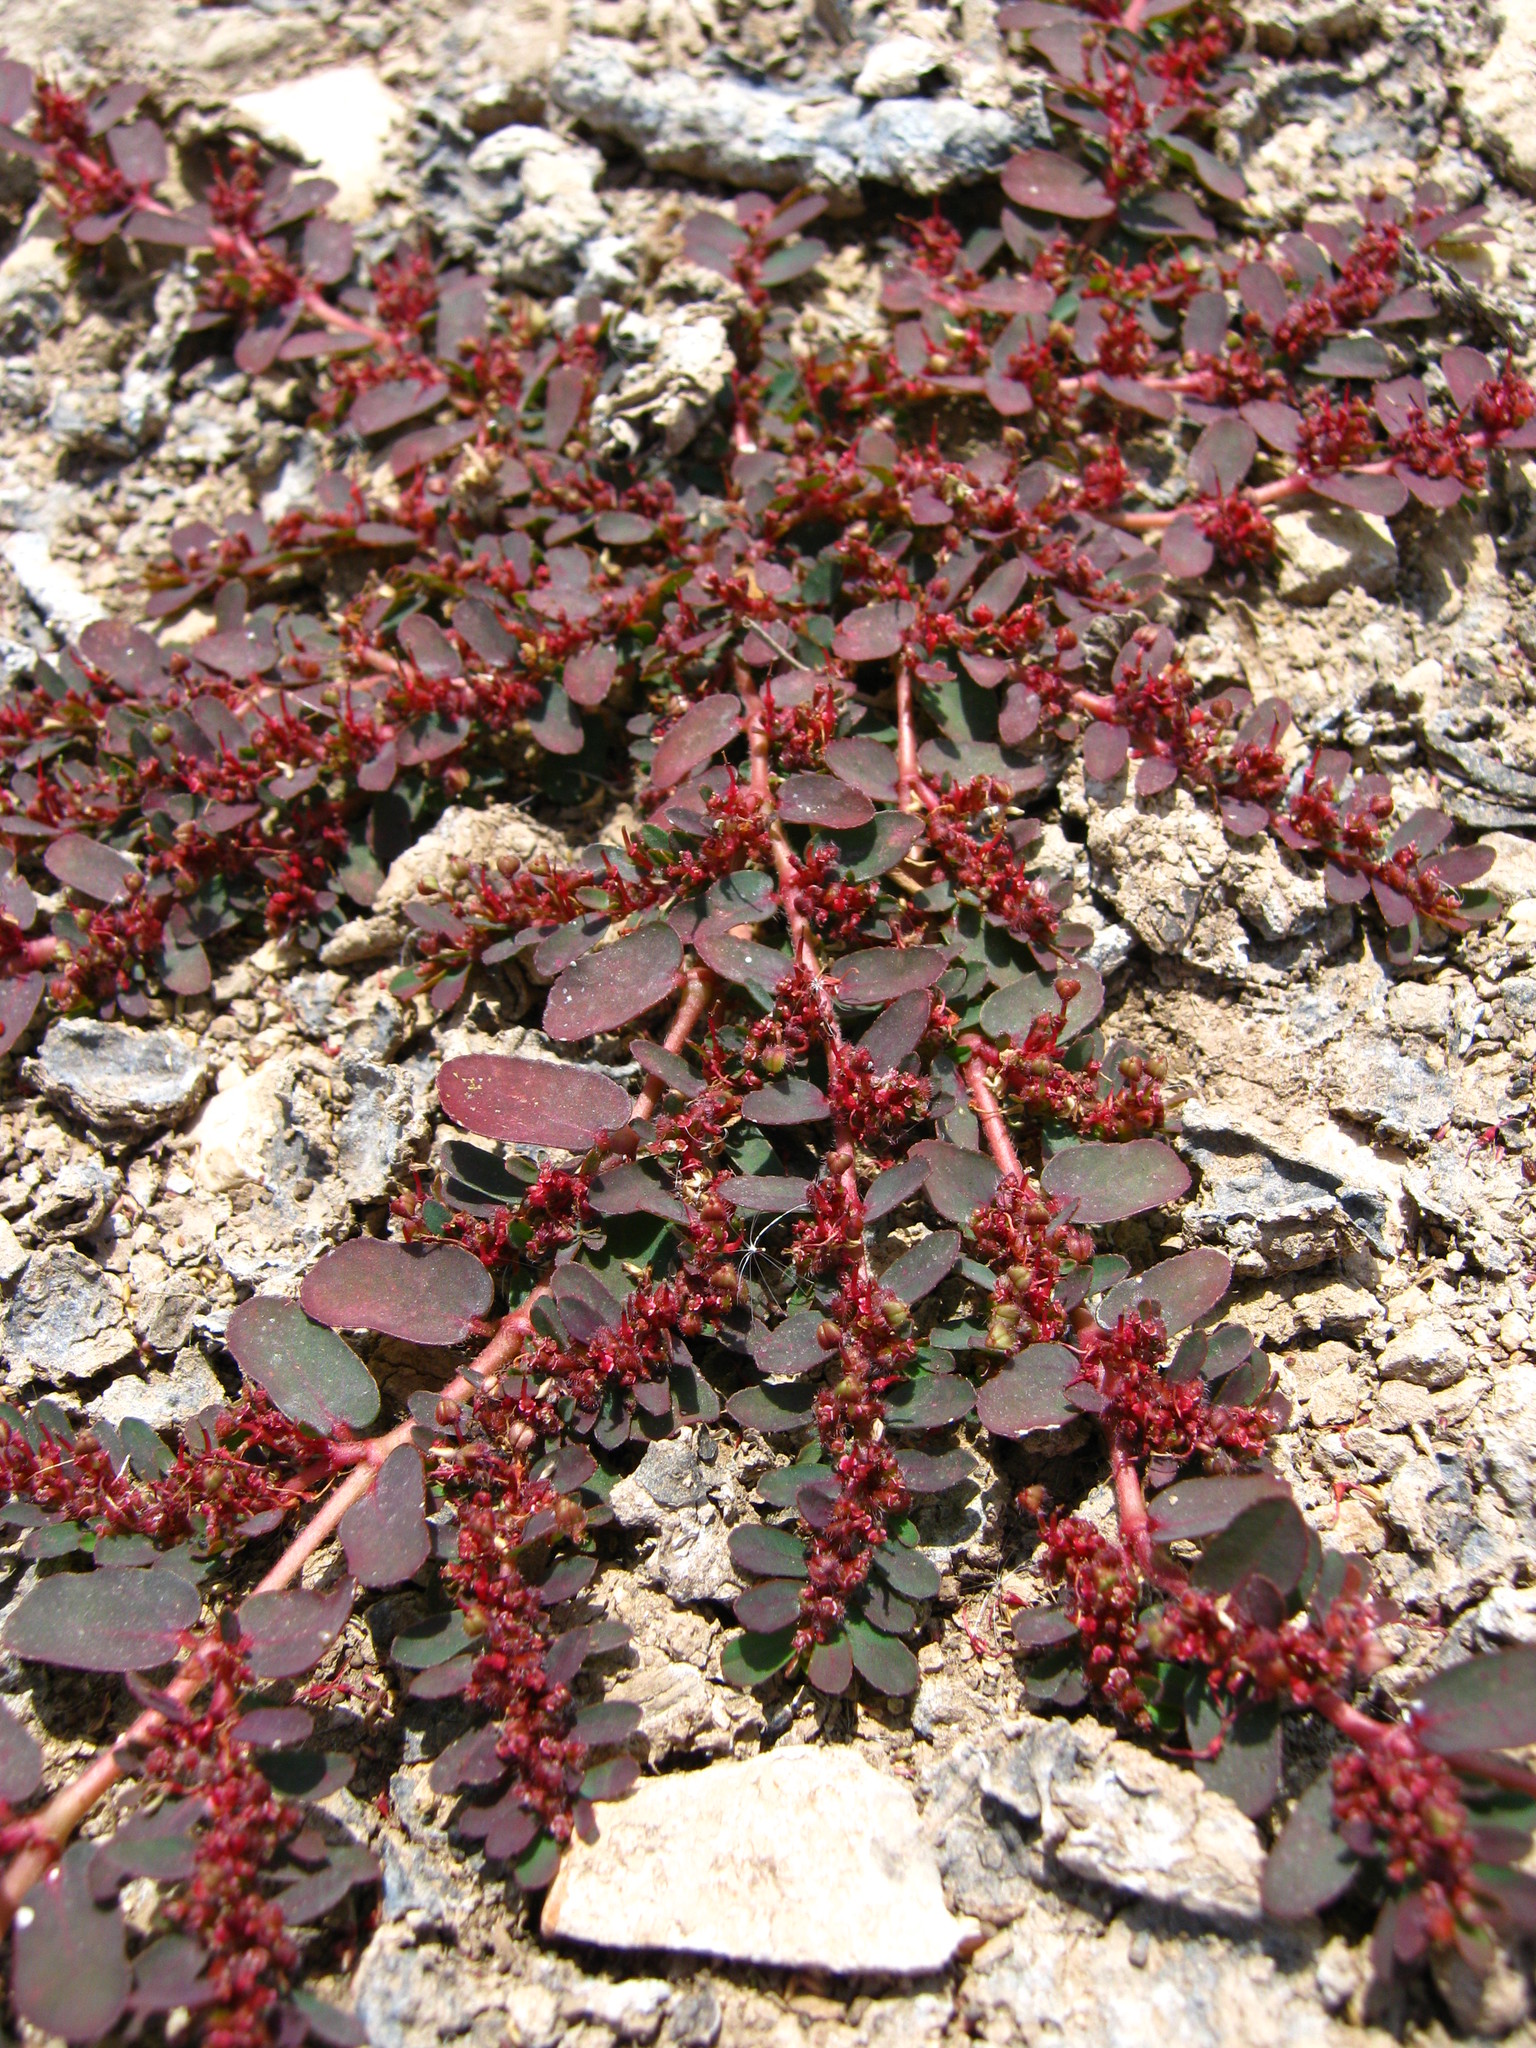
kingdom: Plantae
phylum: Tracheophyta
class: Magnoliopsida
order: Malpighiales
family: Euphorbiaceae
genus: Euphorbia
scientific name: Euphorbia mendezii
